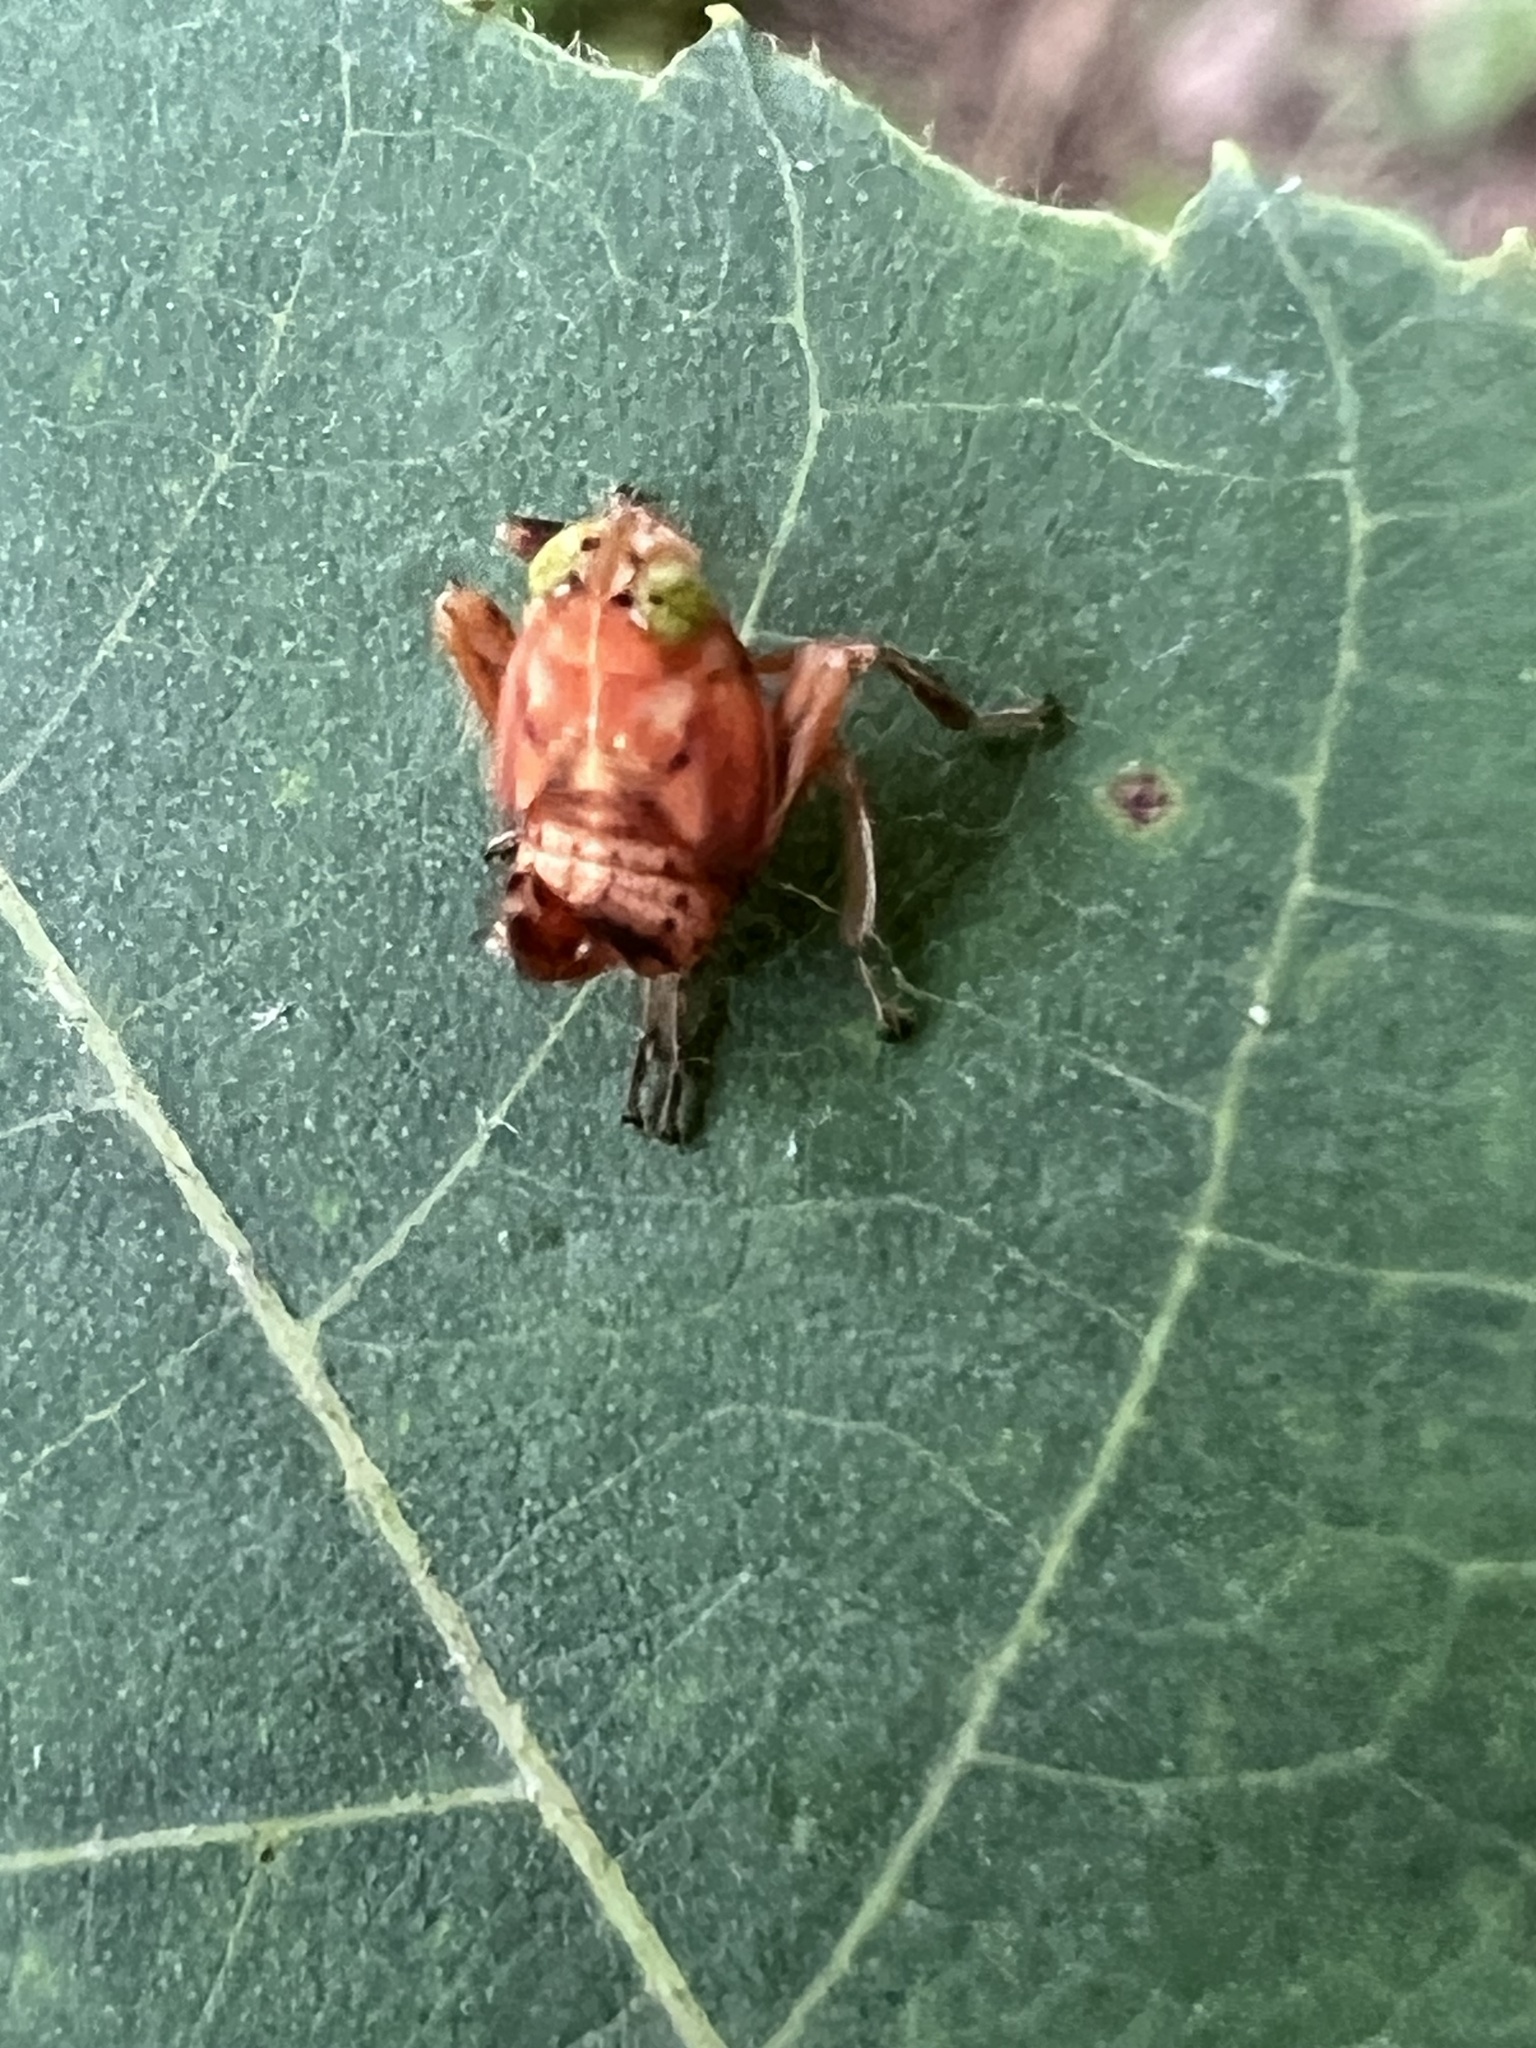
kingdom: Animalia
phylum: Arthropoda
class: Insecta
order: Hemiptera
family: Cicadellidae
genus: Jikradia
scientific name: Jikradia olitoria
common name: Coppery leafhopper
